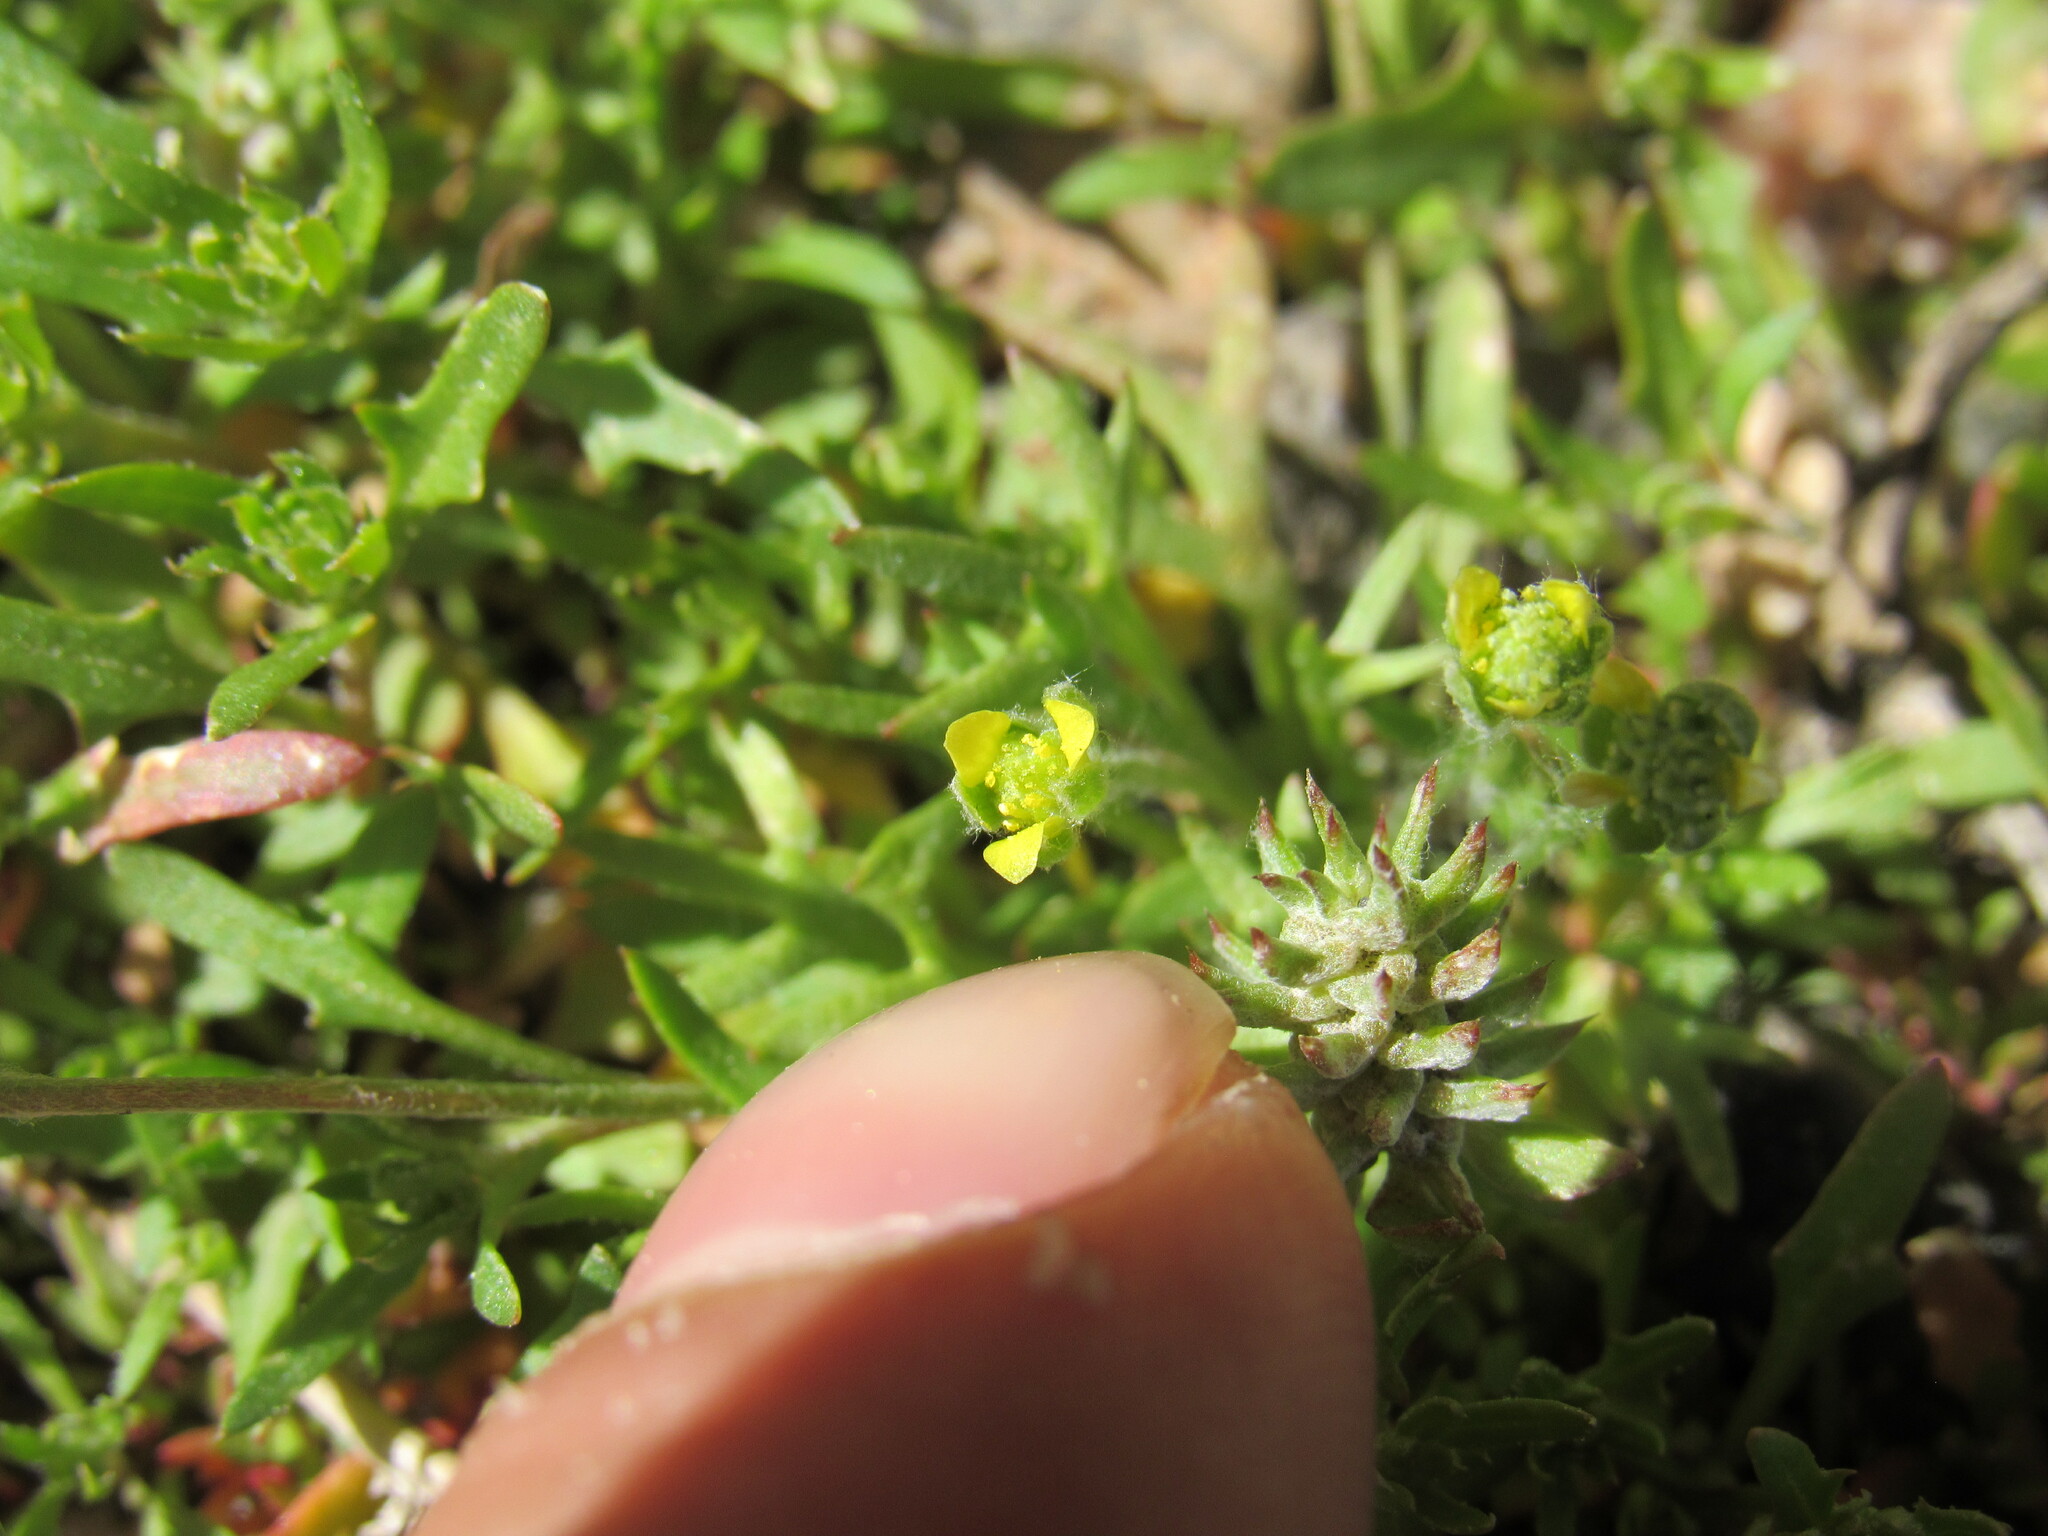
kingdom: Plantae
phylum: Tracheophyta
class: Magnoliopsida
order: Ranunculales
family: Ranunculaceae
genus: Ceratocephala
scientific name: Ceratocephala orthoceras
